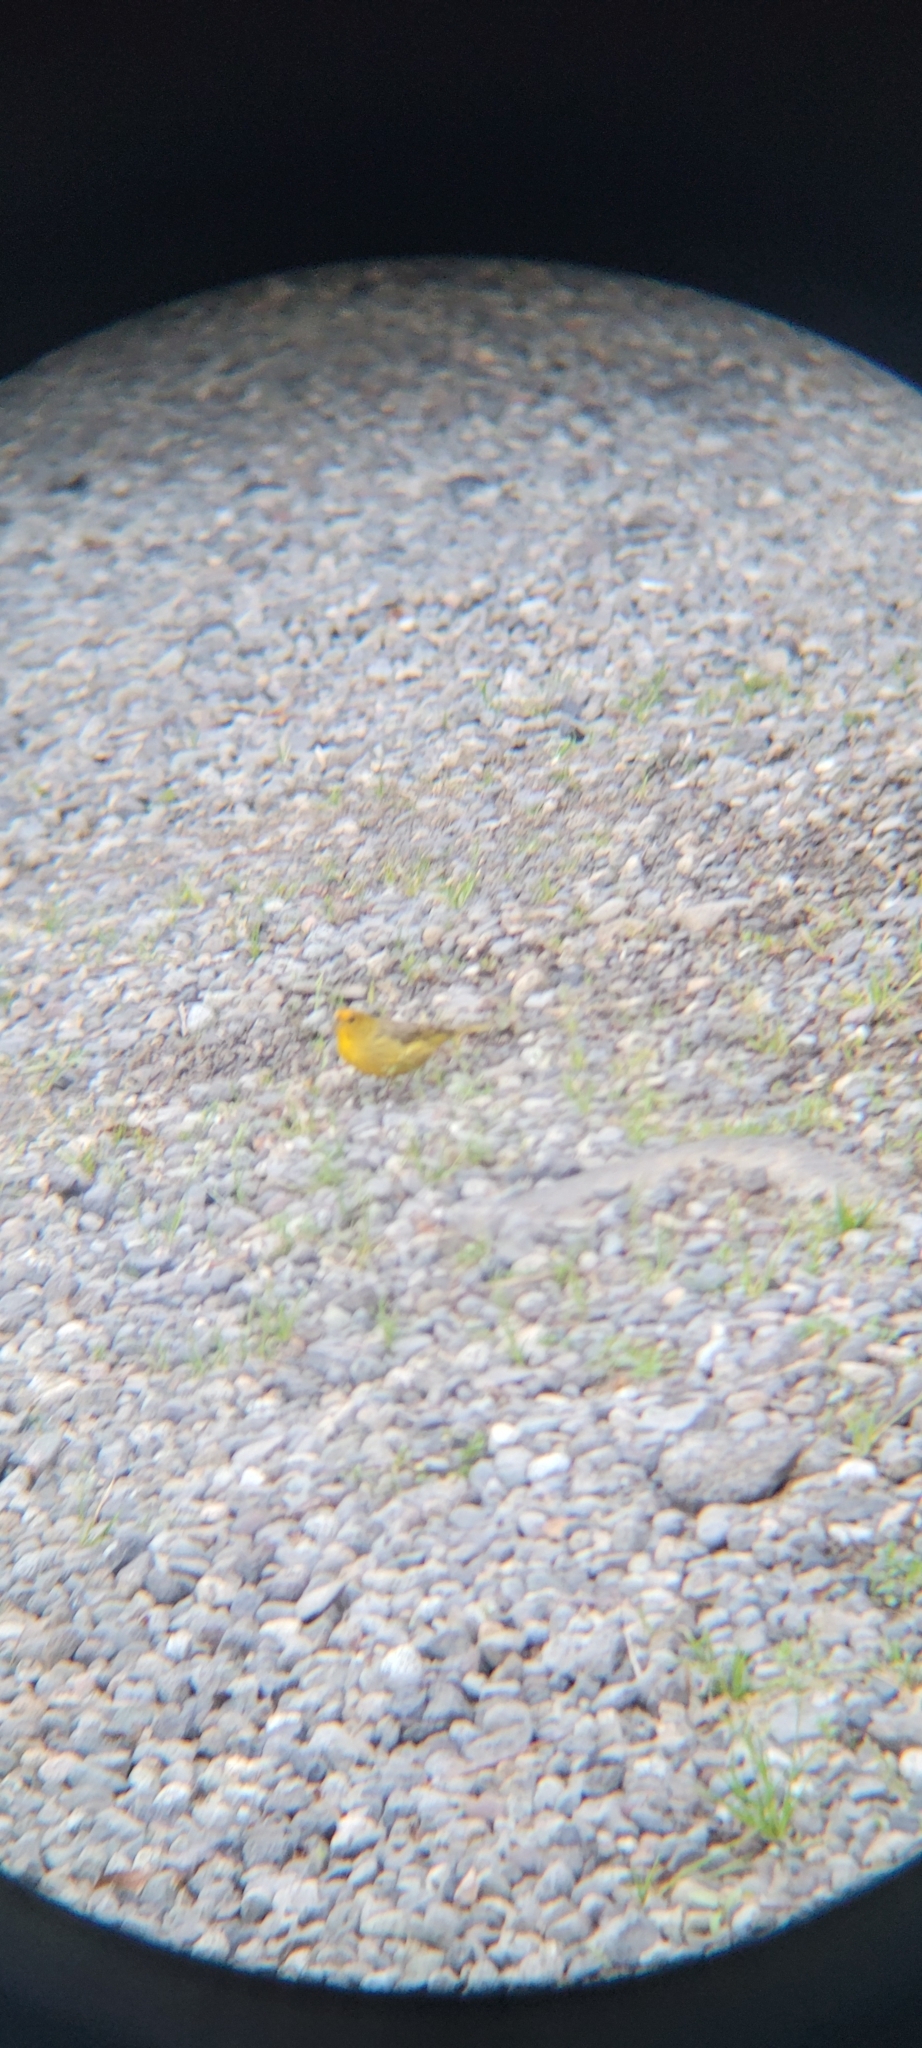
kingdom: Animalia
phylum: Chordata
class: Aves
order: Passeriformes
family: Thraupidae
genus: Sicalis
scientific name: Sicalis flaveola
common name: Saffron finch
